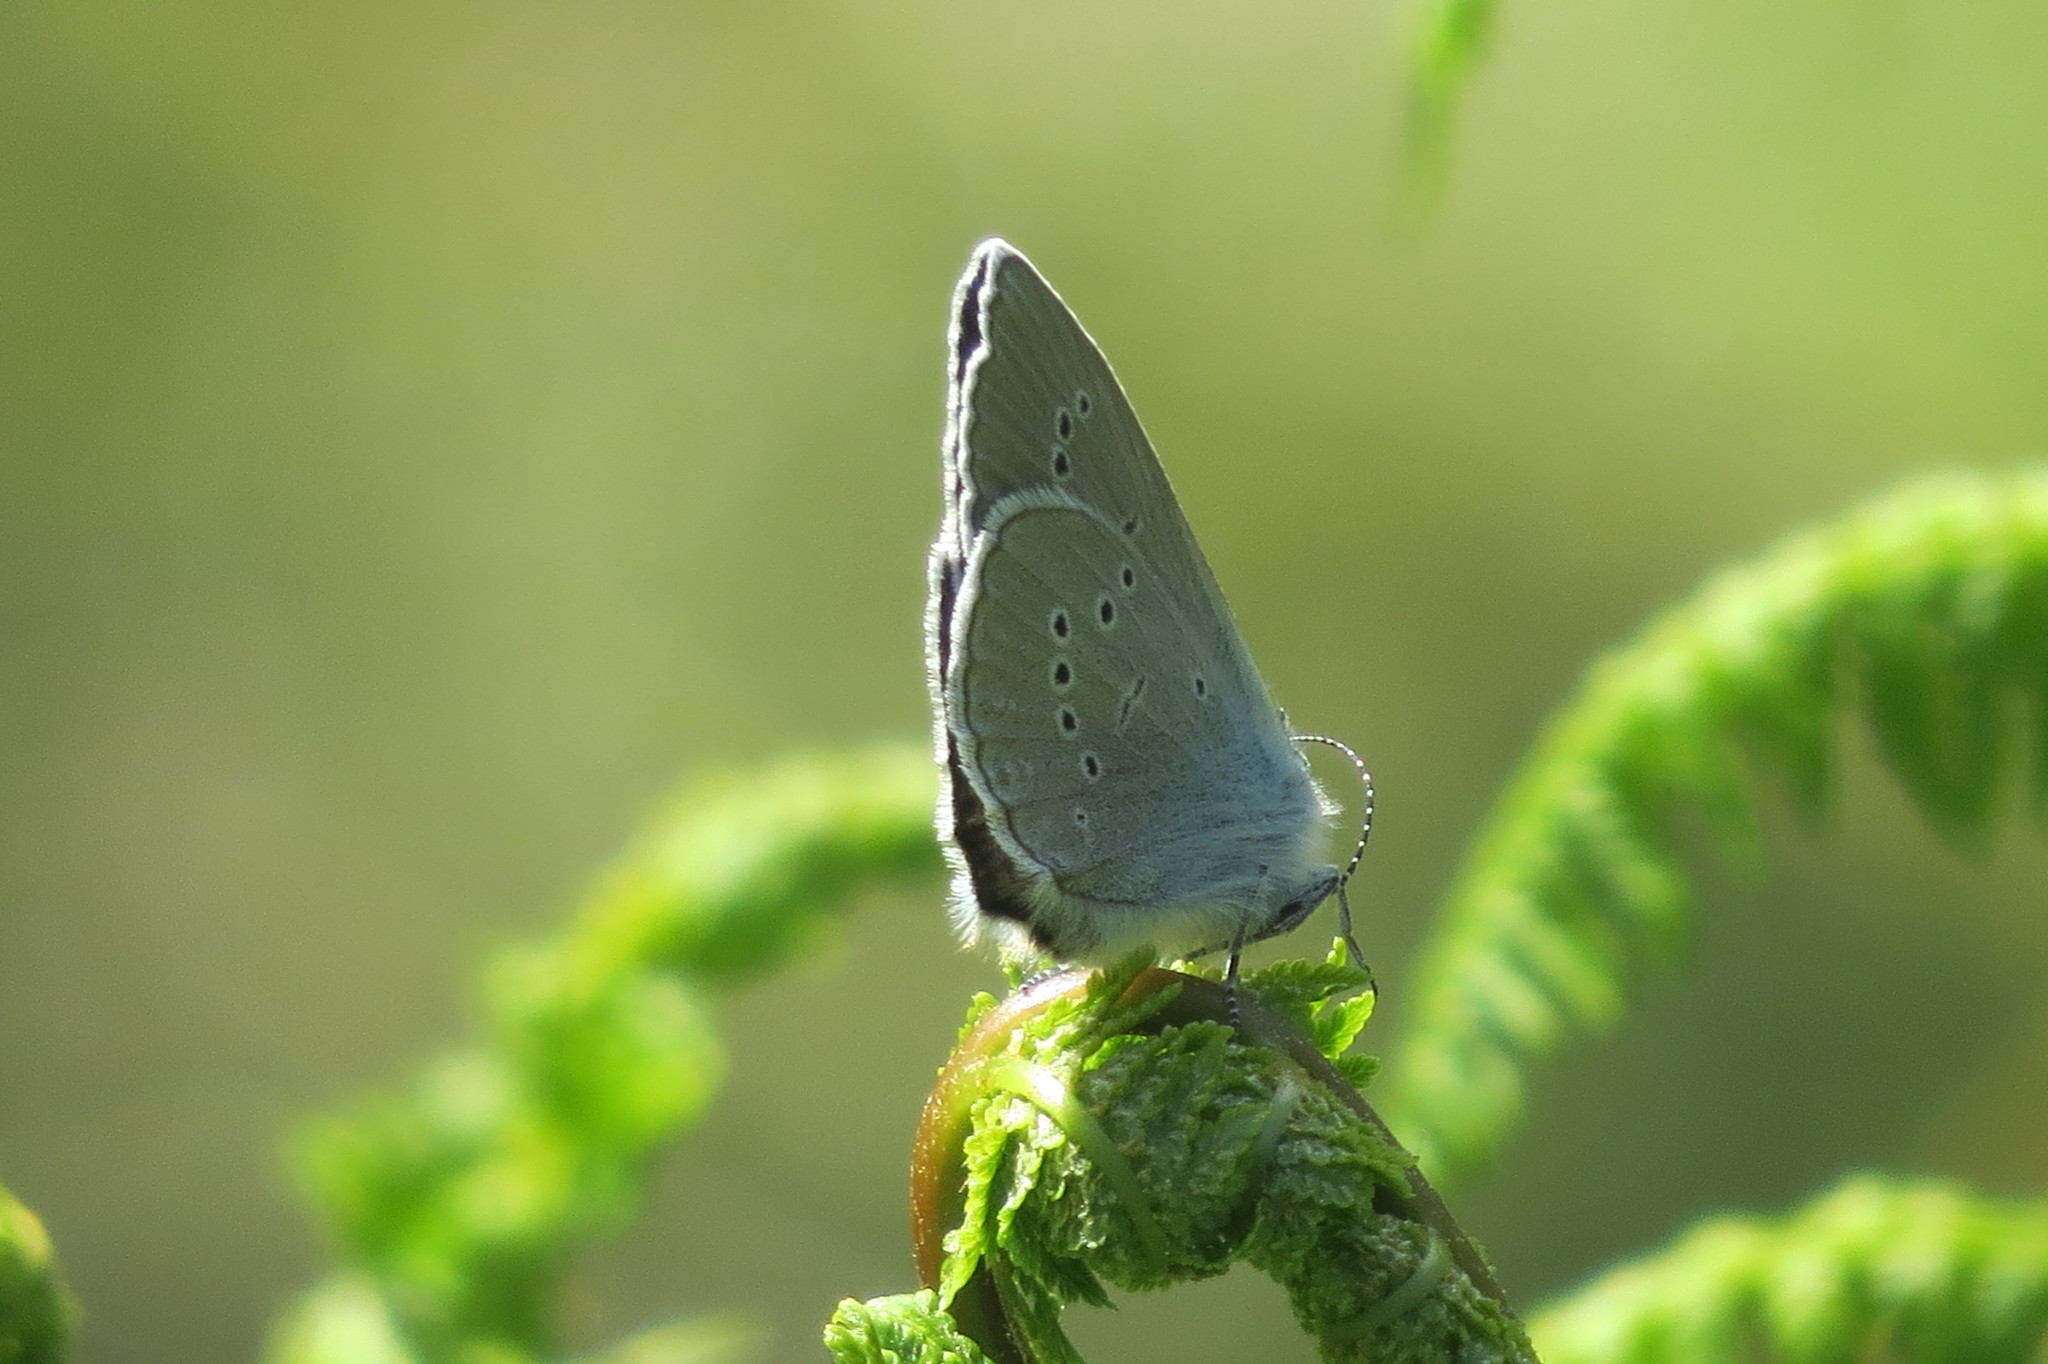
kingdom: Animalia
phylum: Arthropoda
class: Insecta
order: Lepidoptera
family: Lycaenidae
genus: Cyaniris
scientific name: Cyaniris semiargus
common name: Mazarine blue
